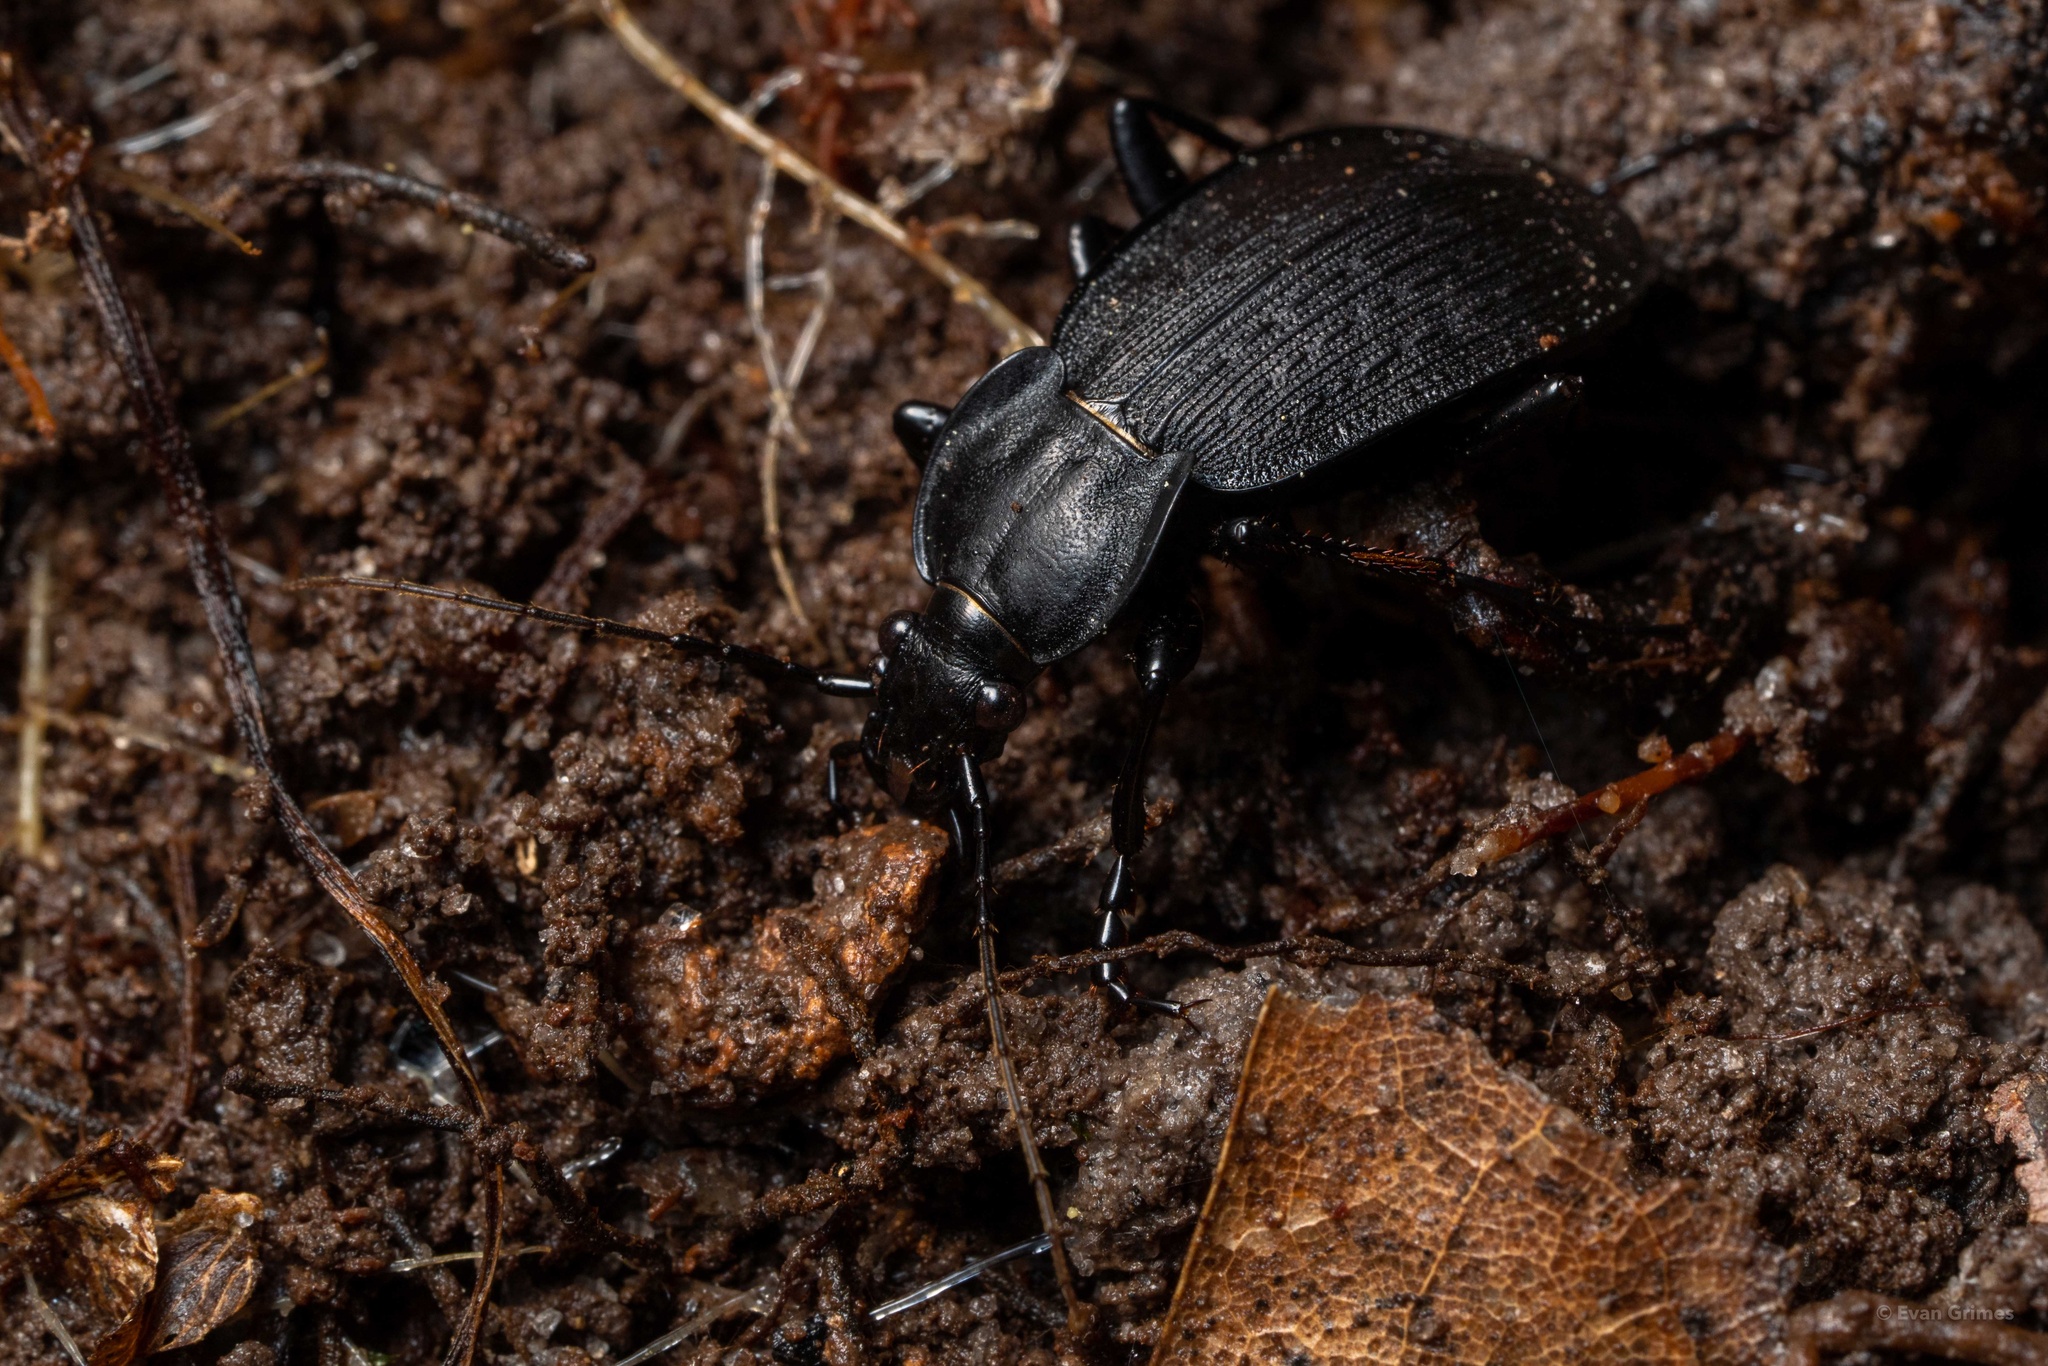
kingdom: Animalia
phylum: Arthropoda
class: Insecta
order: Coleoptera
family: Carabidae
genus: Carabus
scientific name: Carabus vinctus
